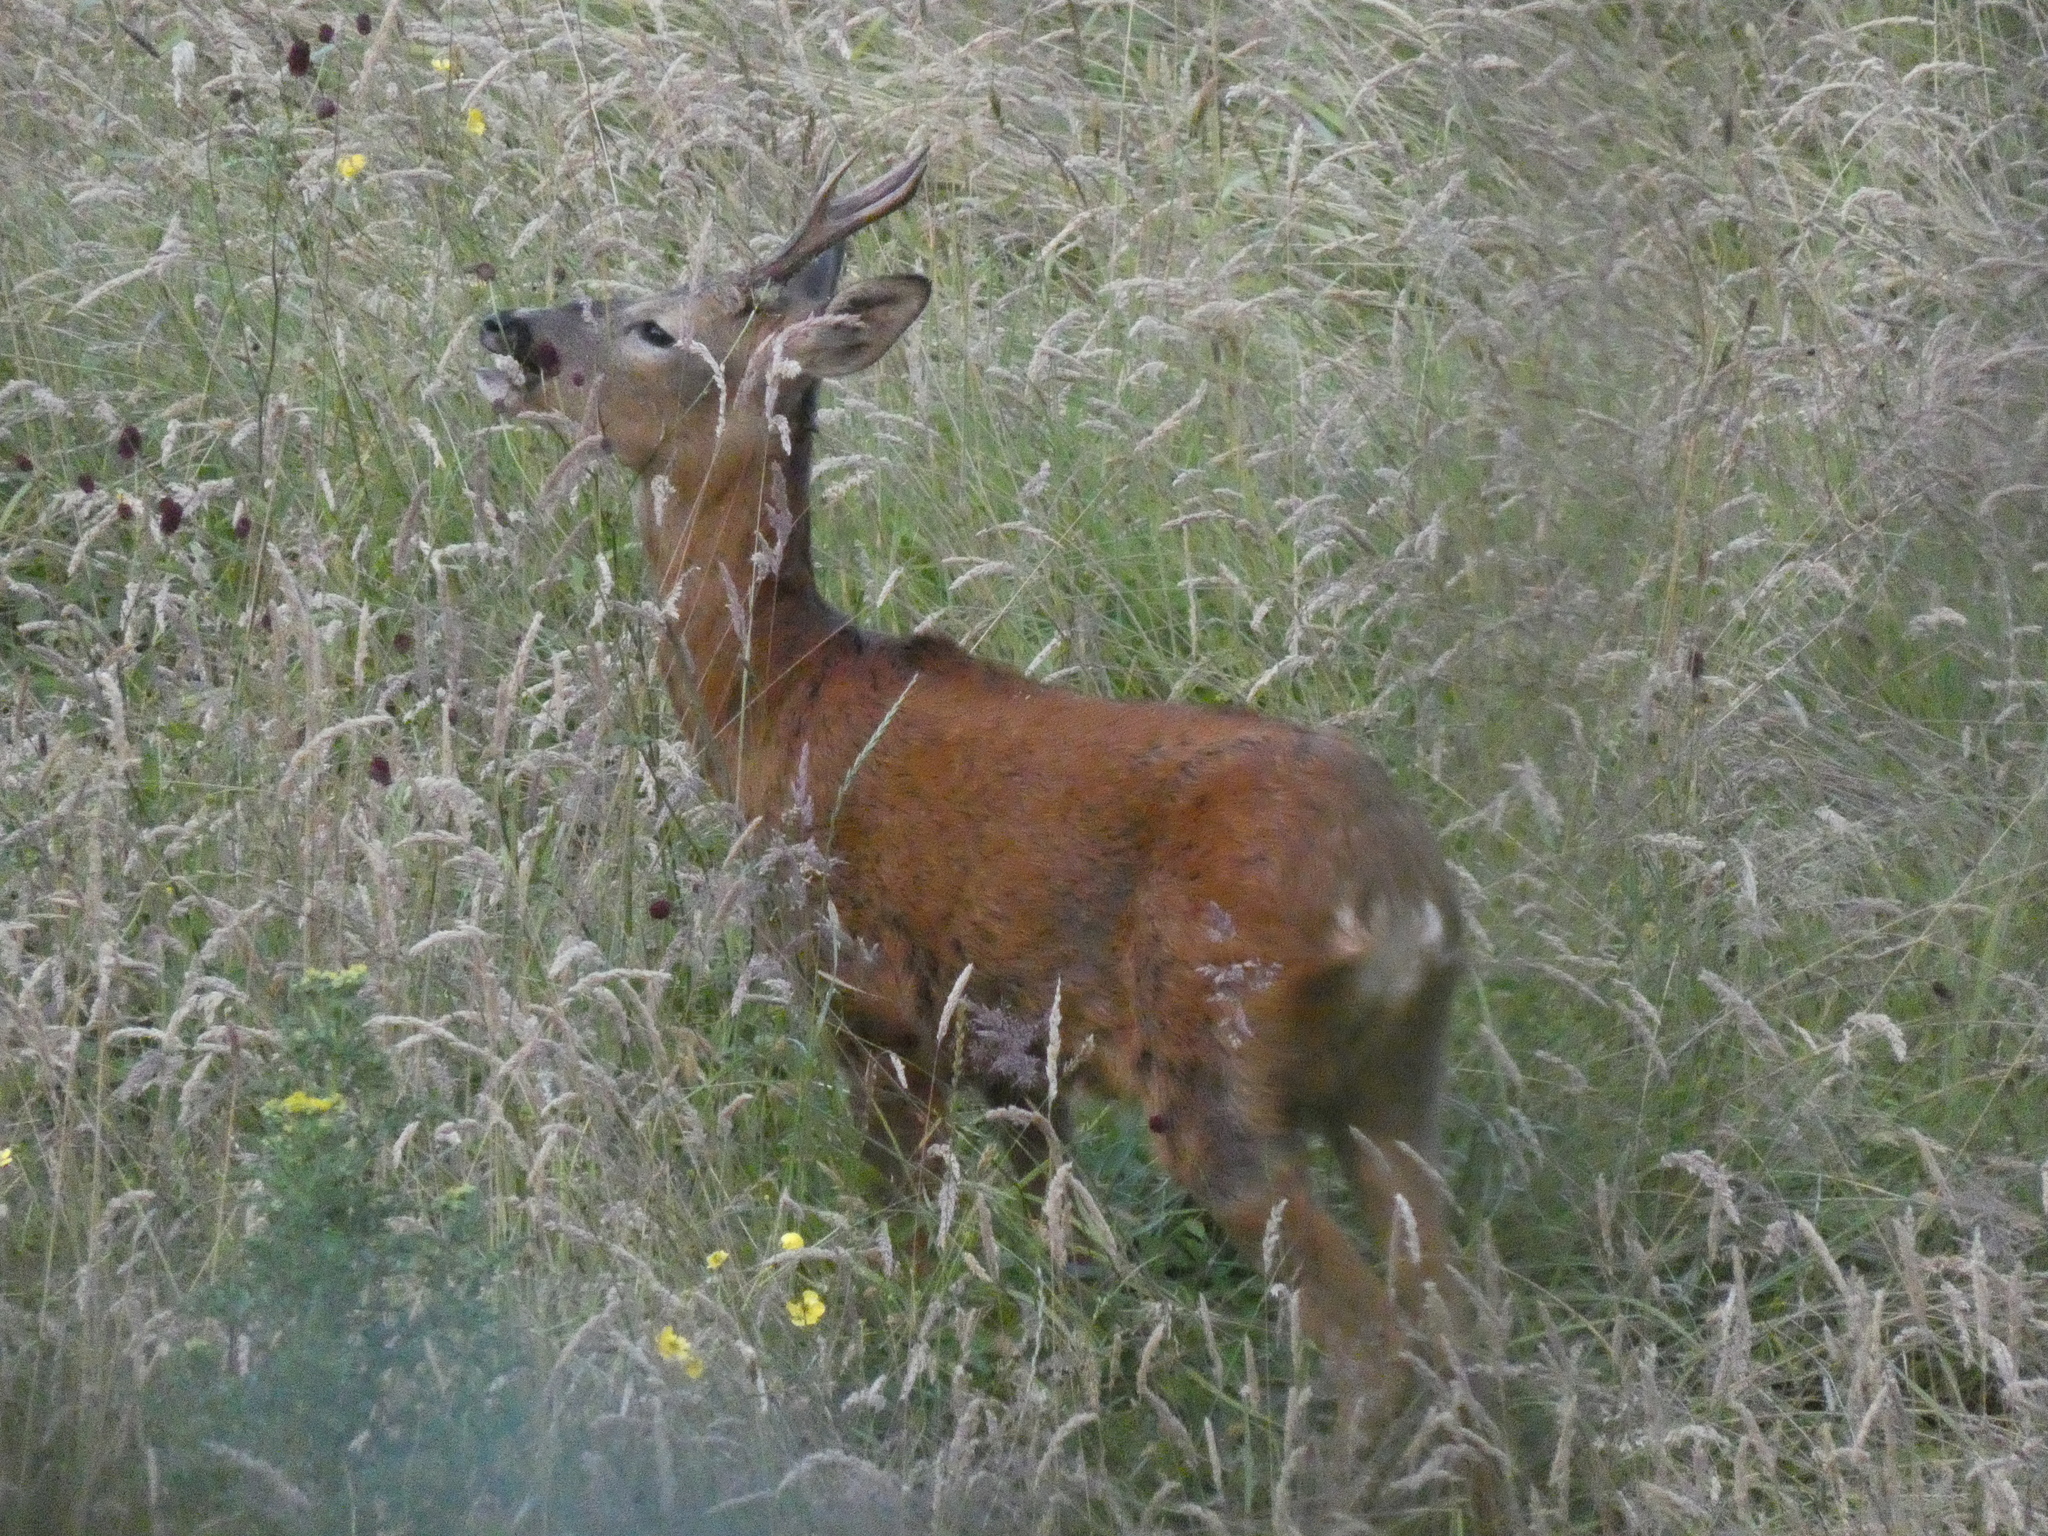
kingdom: Animalia
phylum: Chordata
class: Mammalia
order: Artiodactyla
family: Cervidae
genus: Capreolus
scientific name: Capreolus capreolus
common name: Western roe deer
